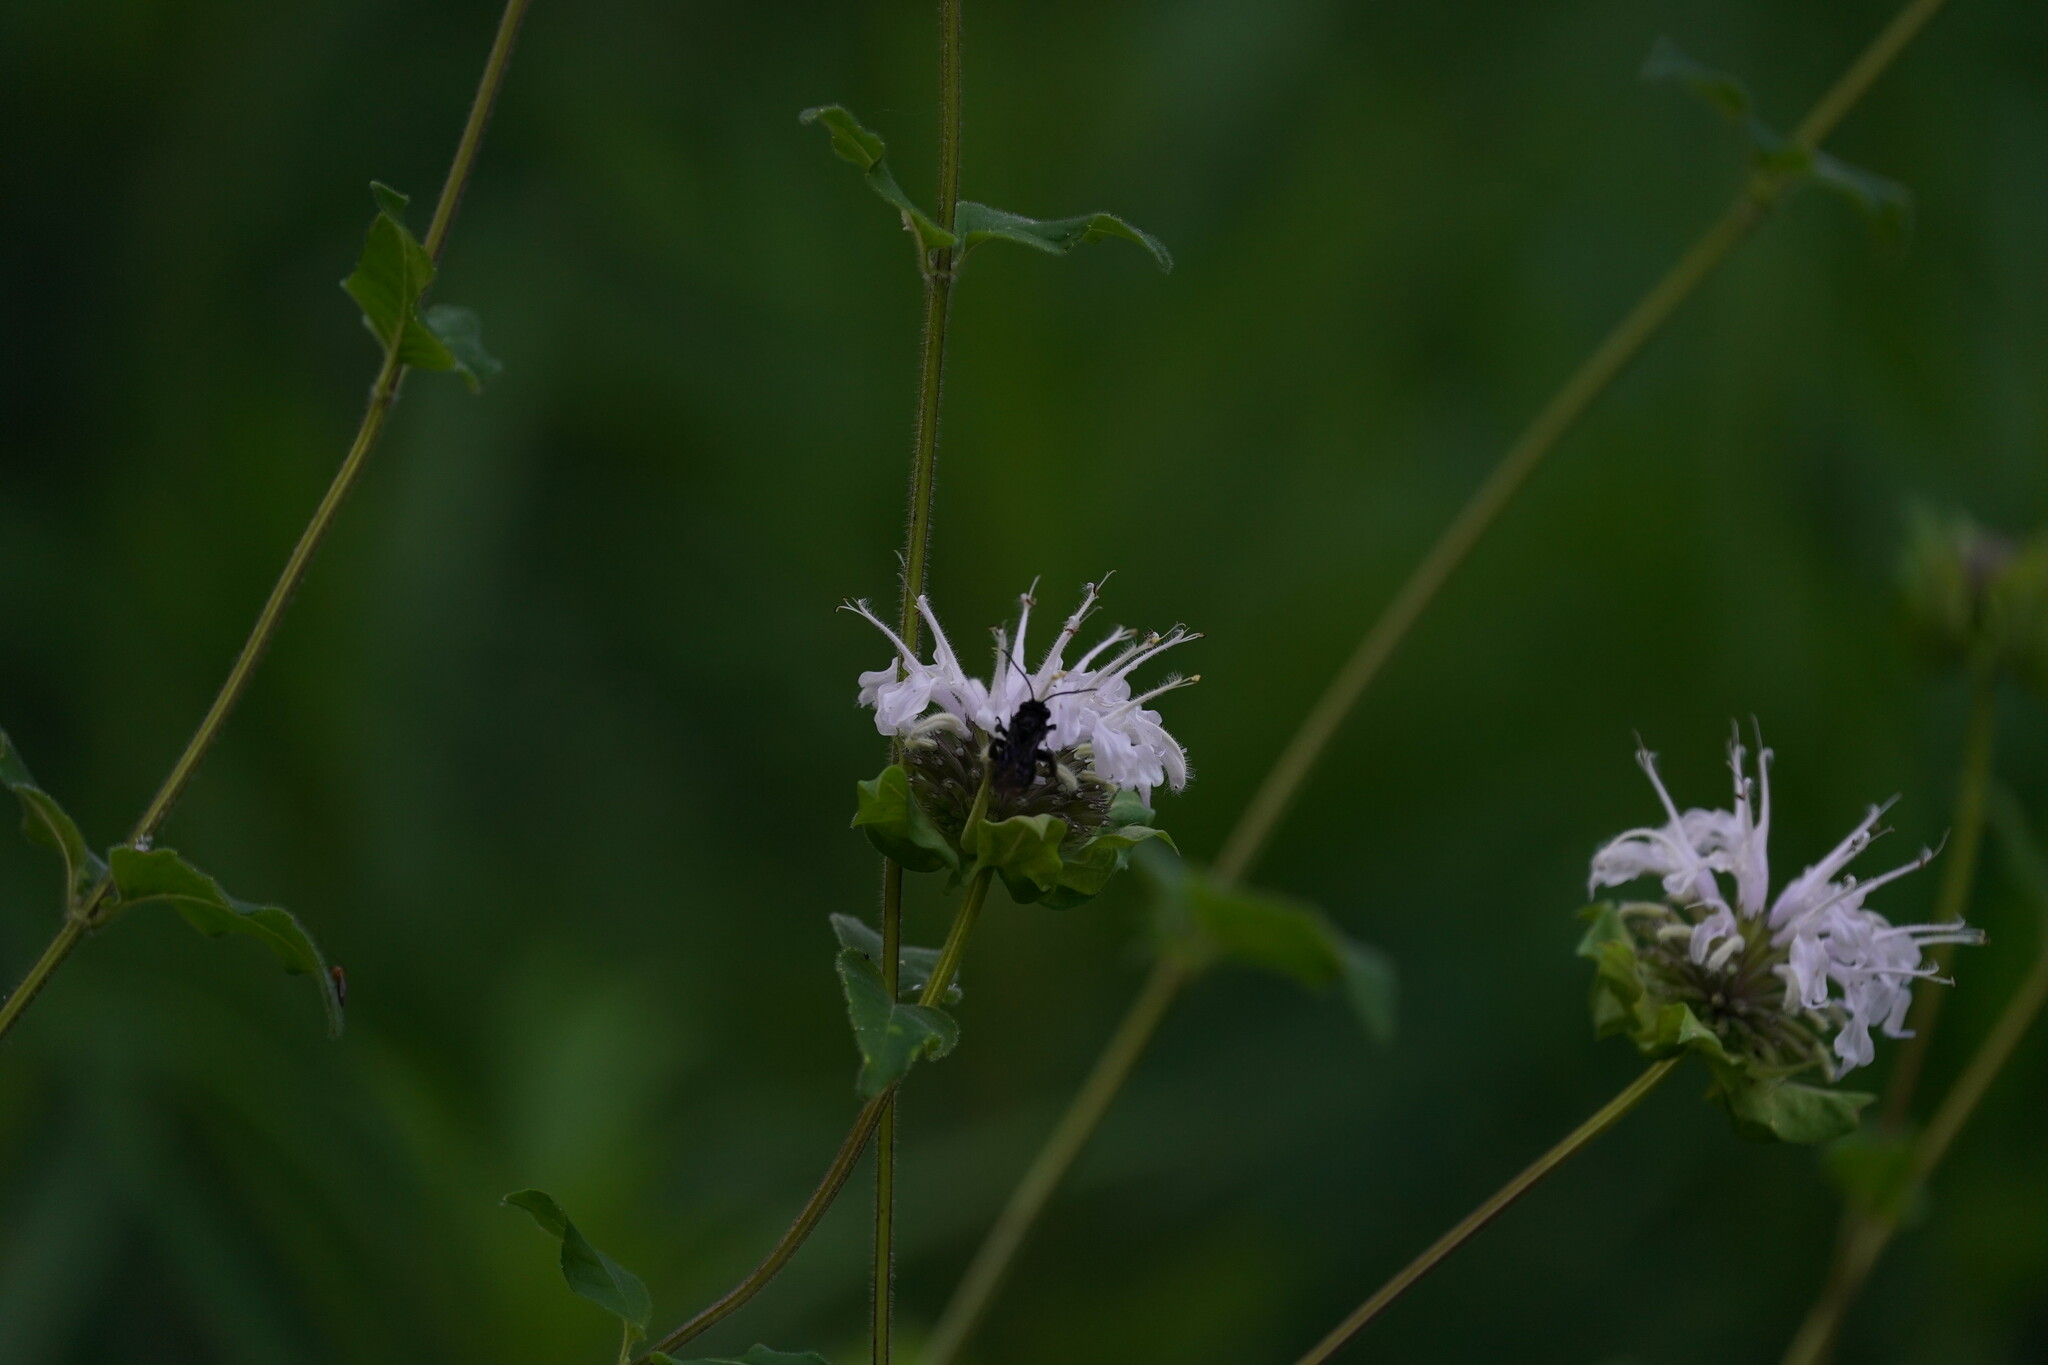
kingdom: Animalia
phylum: Arthropoda
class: Insecta
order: Hymenoptera
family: Apidae
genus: Melissodes
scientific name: Melissodes bimaculatus
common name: Two-spotted long-horned bee
